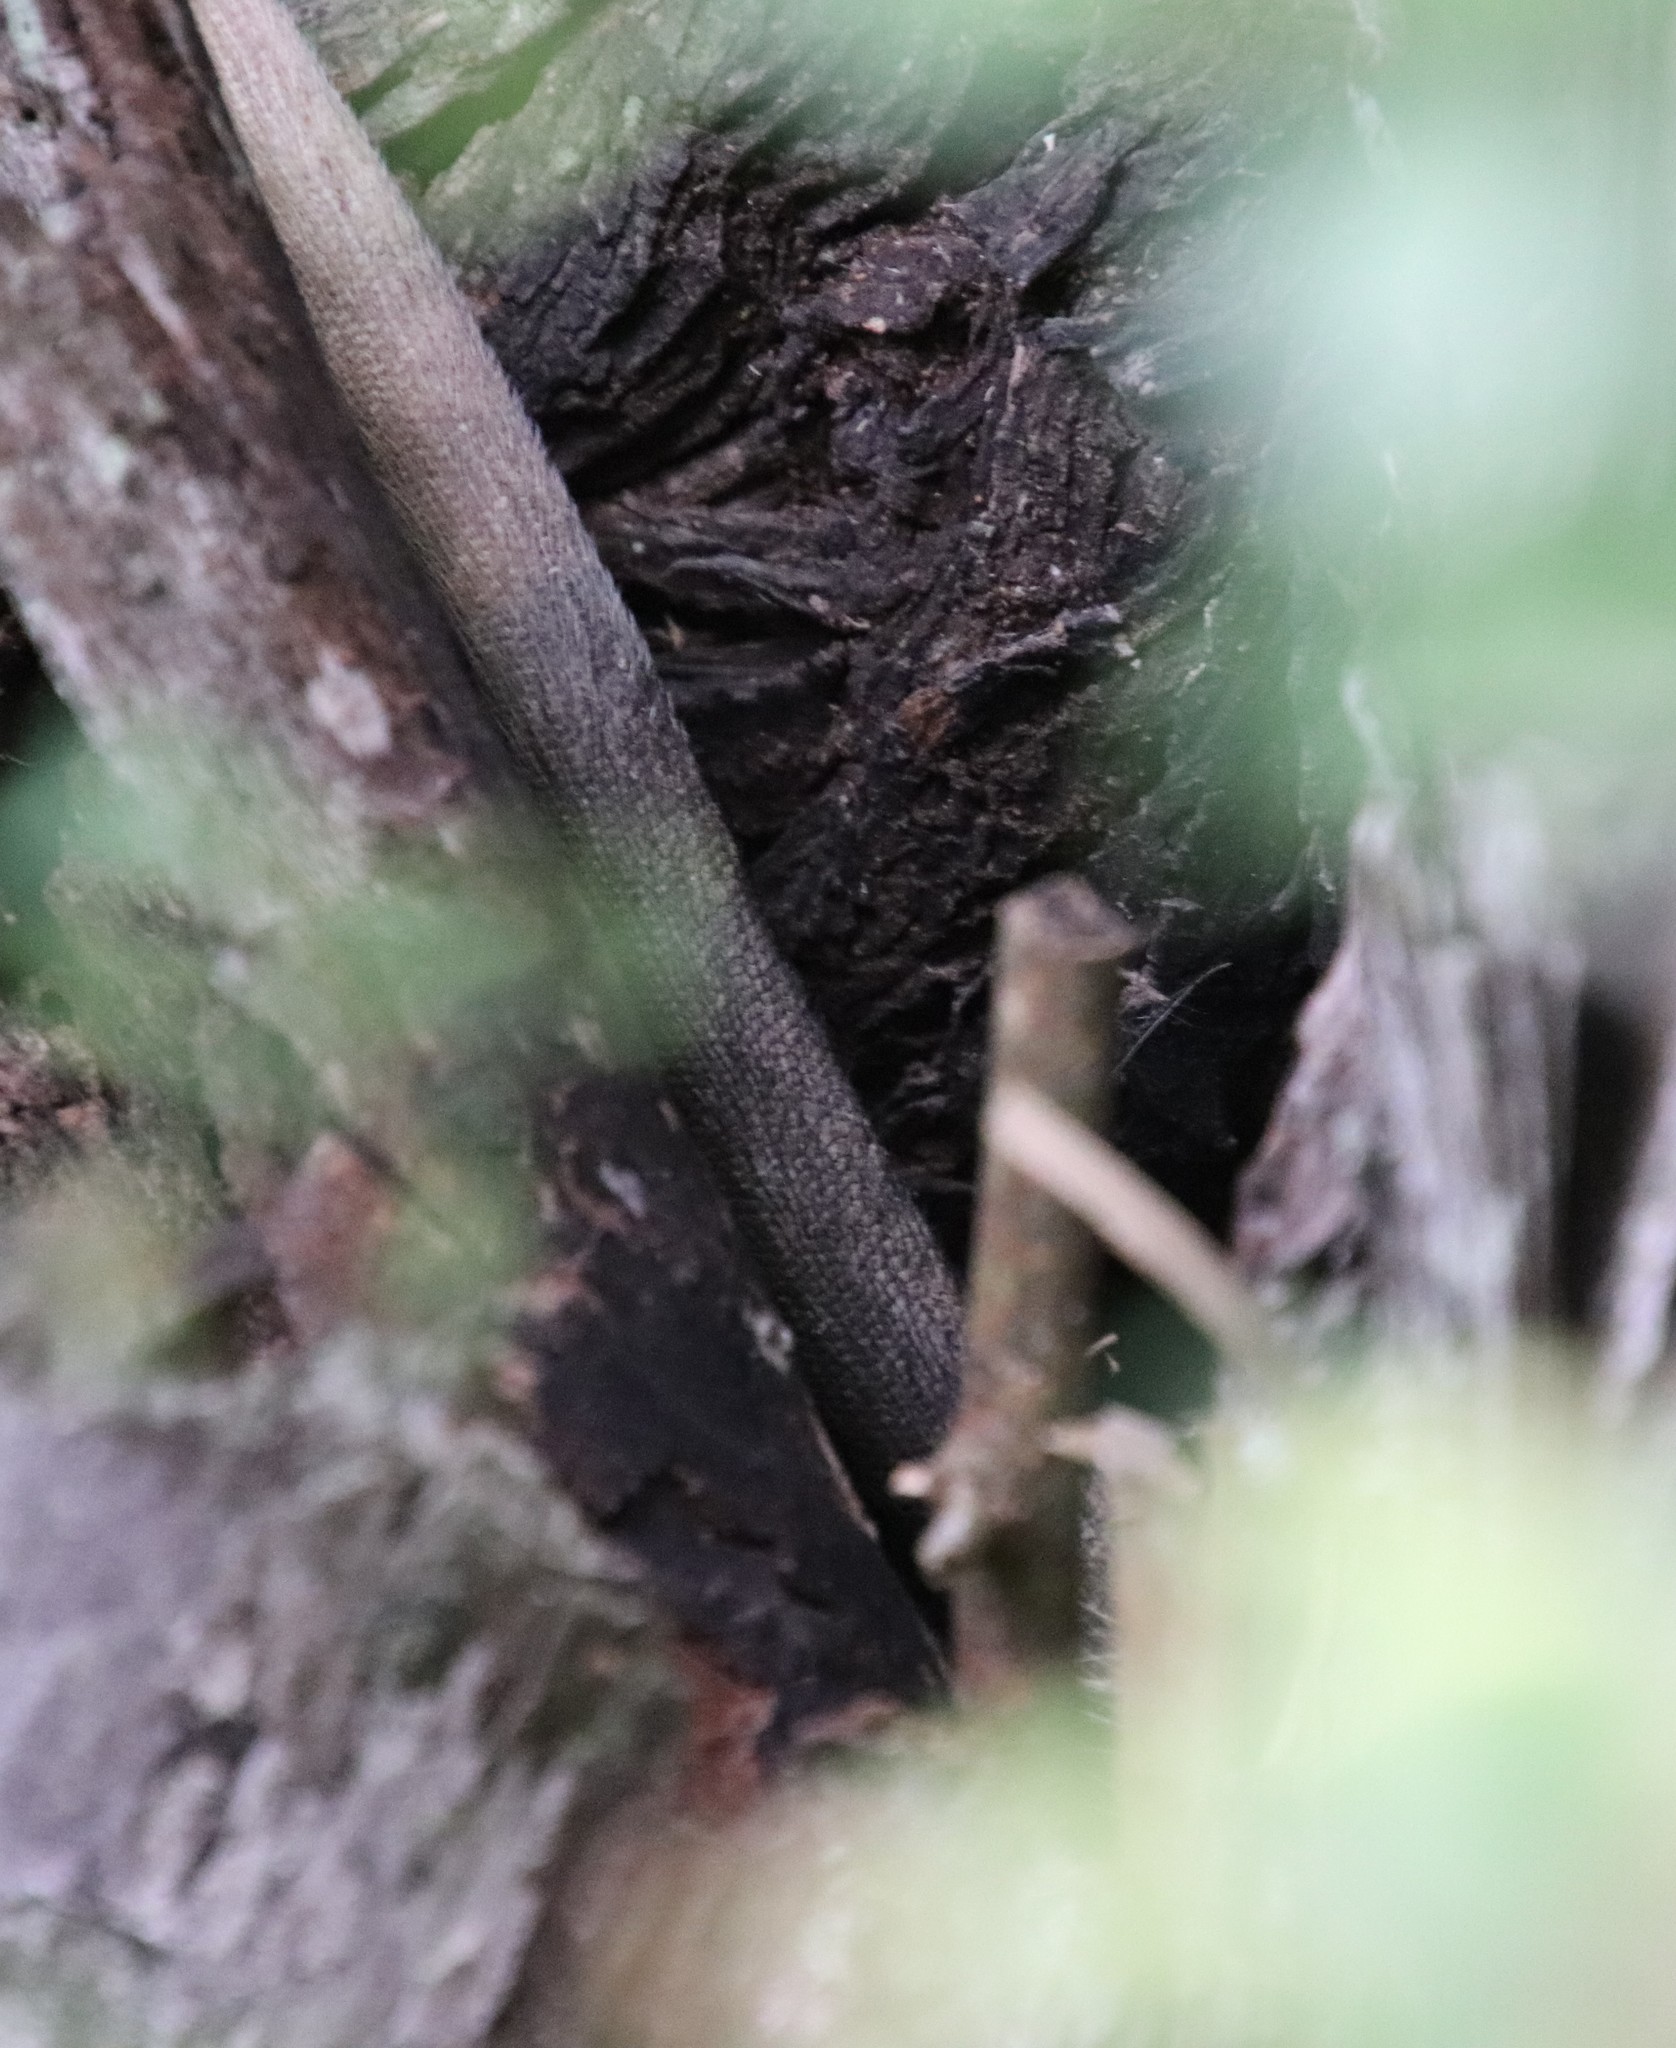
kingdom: Animalia
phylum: Chordata
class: Mammalia
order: Didelphimorphia
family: Didelphidae
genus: Didelphis
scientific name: Didelphis virginiana
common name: Virginia opossum
